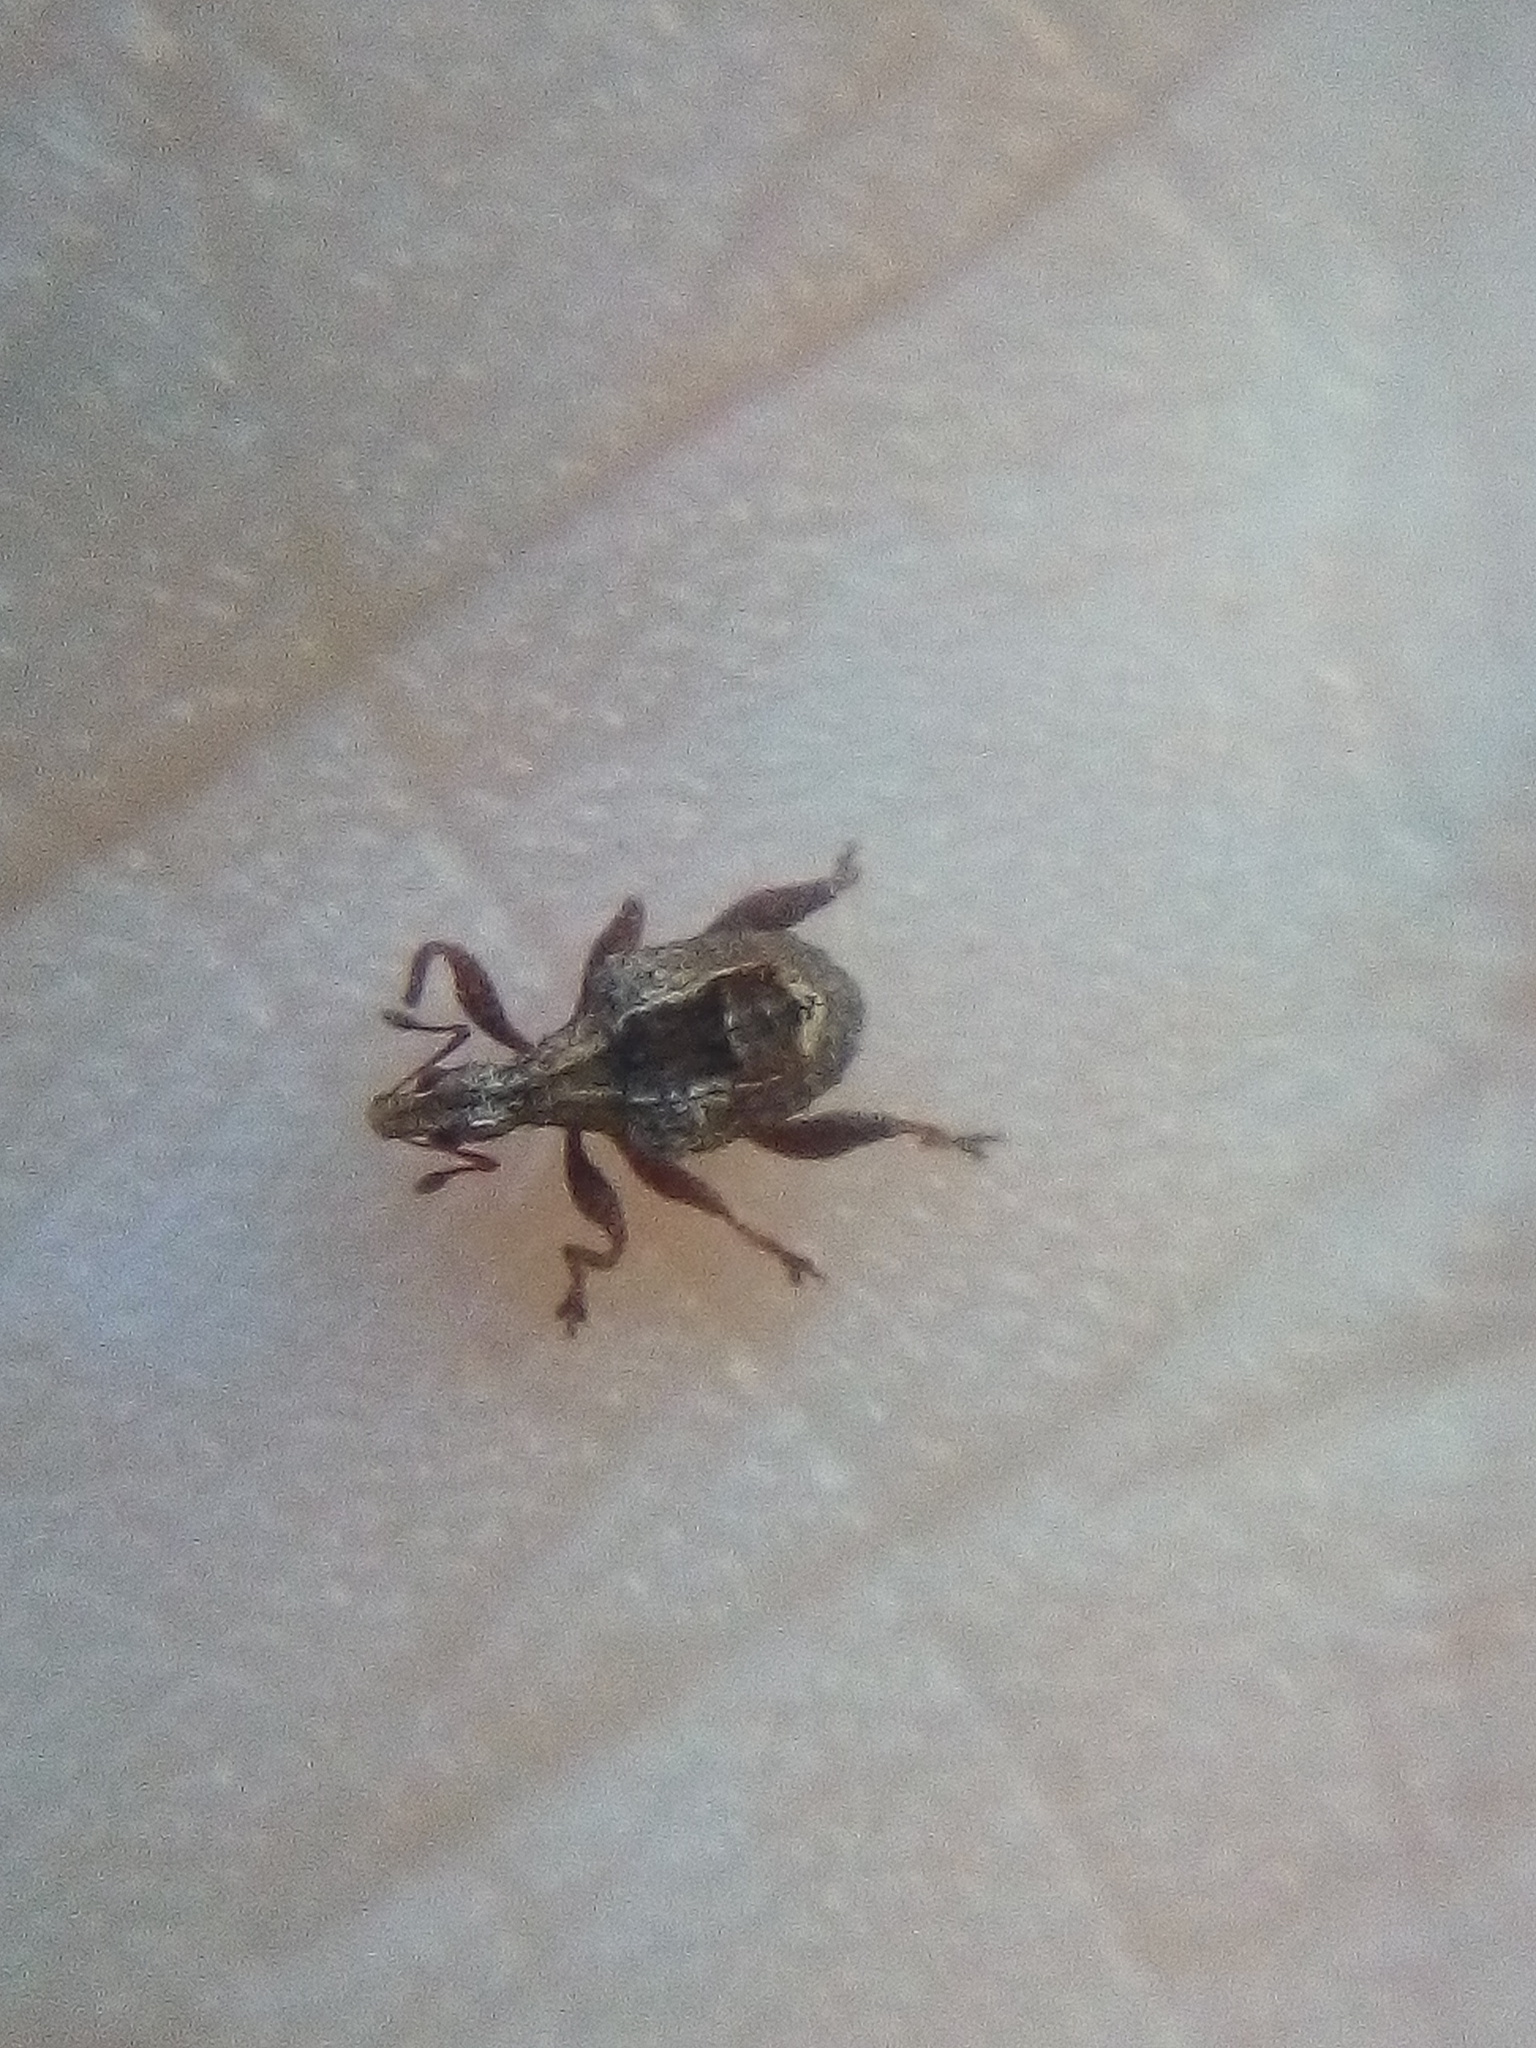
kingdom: Animalia
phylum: Arthropoda
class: Insecta
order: Coleoptera
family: Curculionidae
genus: Stephanorrhynchus
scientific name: Stephanorrhynchus crassus
